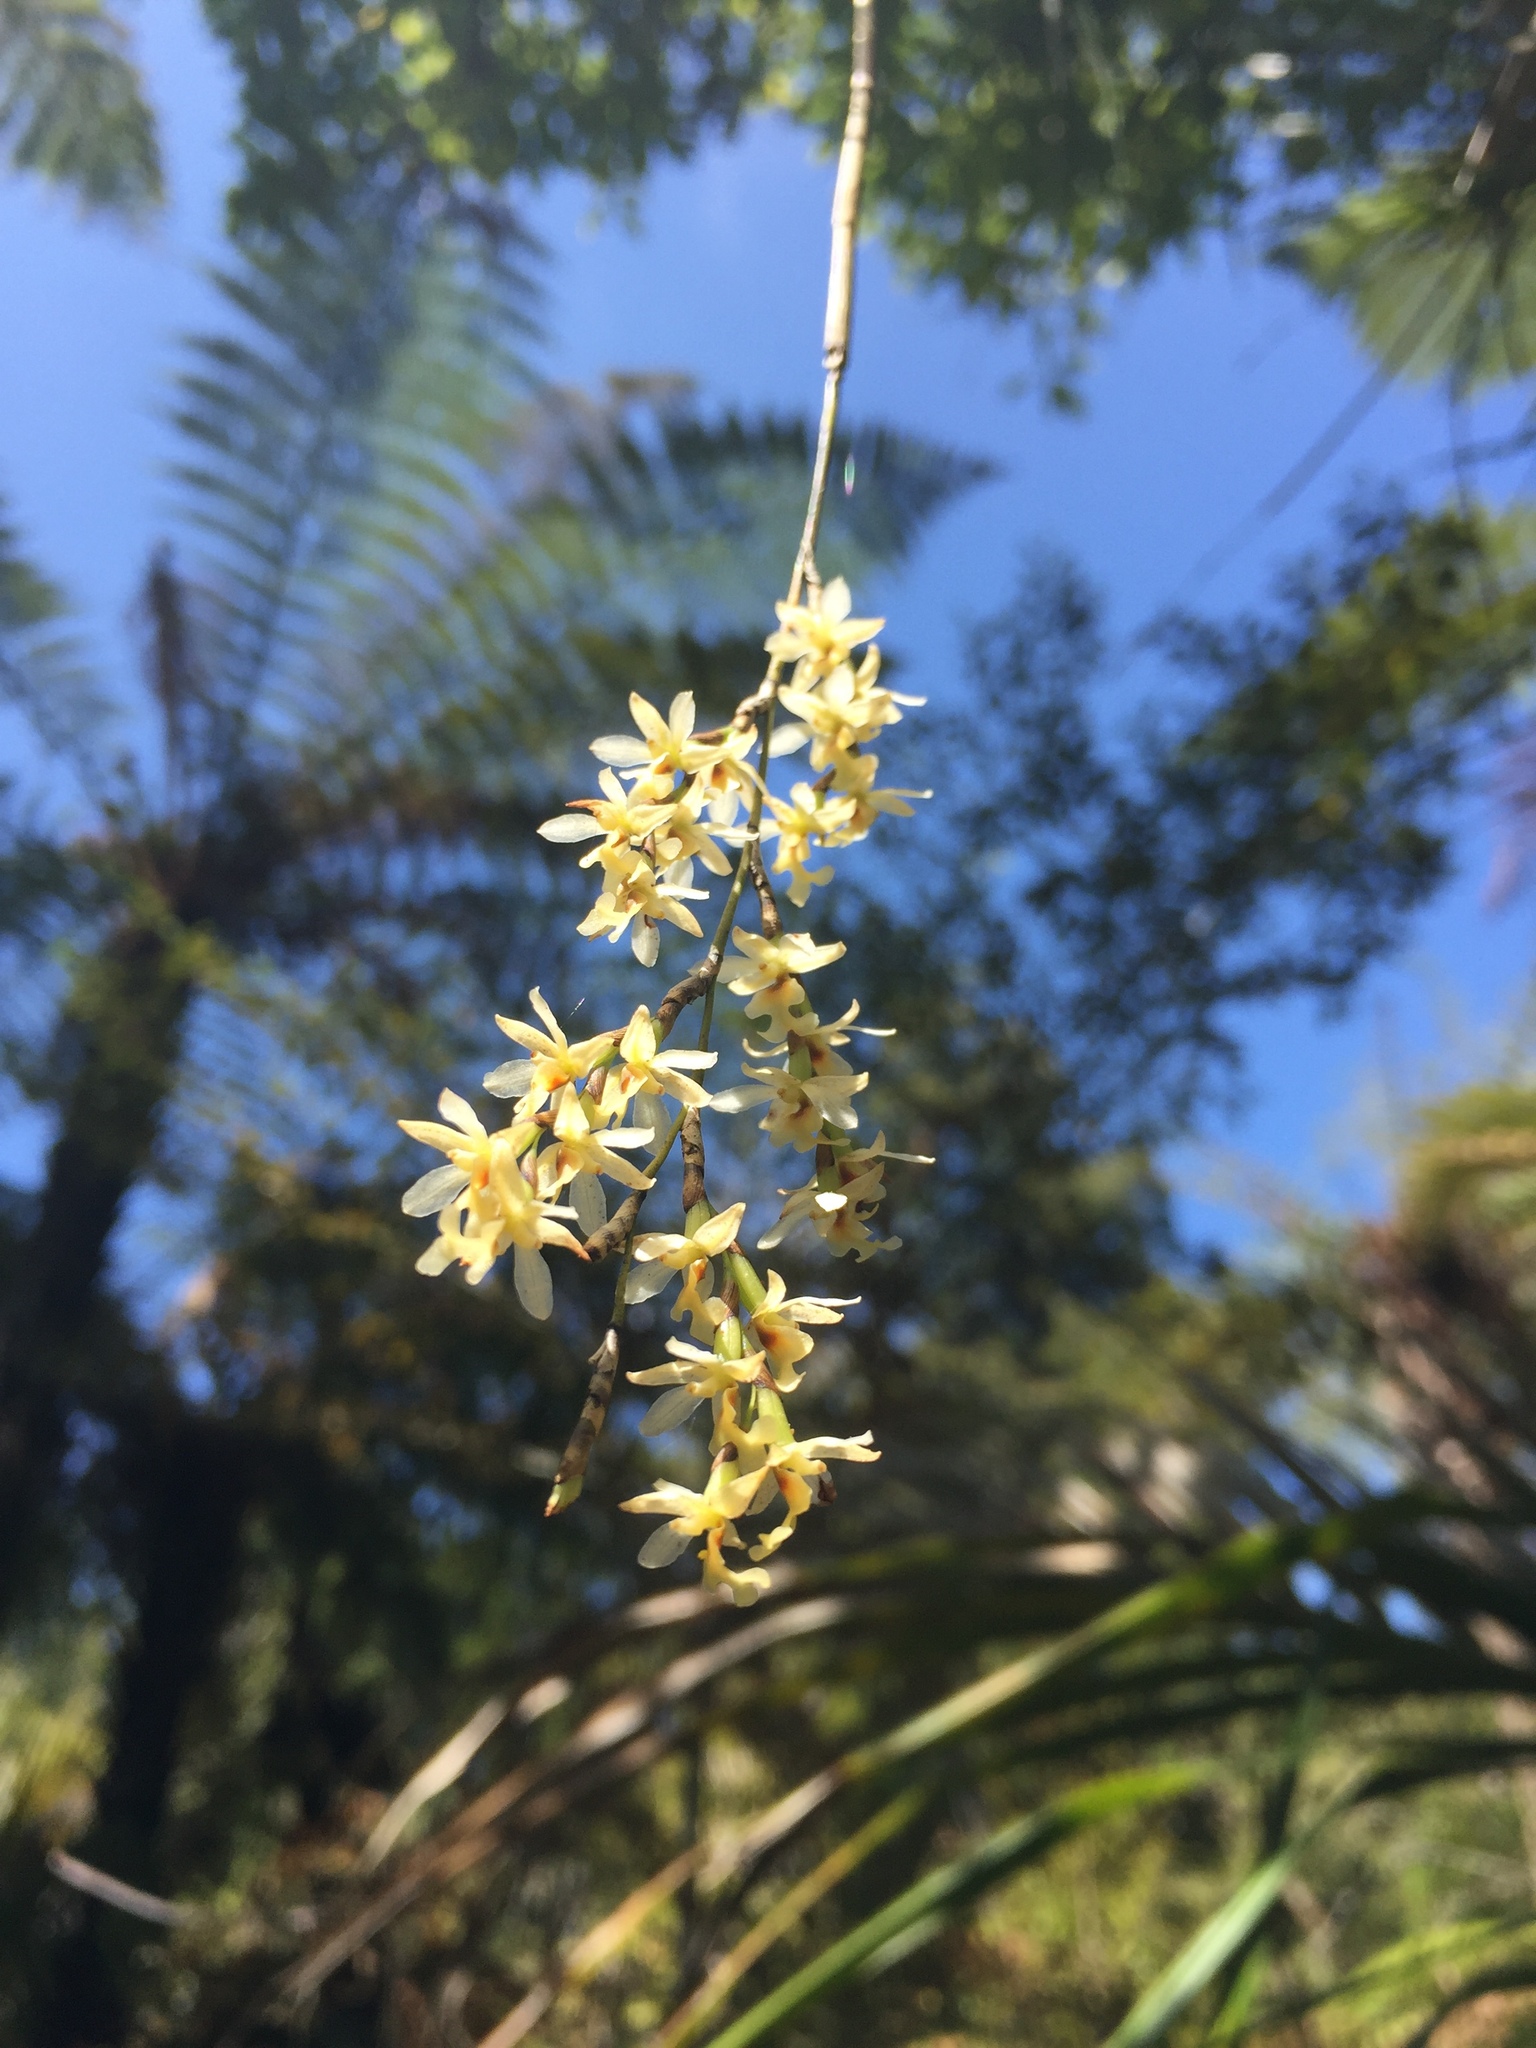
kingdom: Plantae
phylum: Tracheophyta
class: Liliopsida
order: Asparagales
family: Orchidaceae
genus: Earina
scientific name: Earina mucronata
